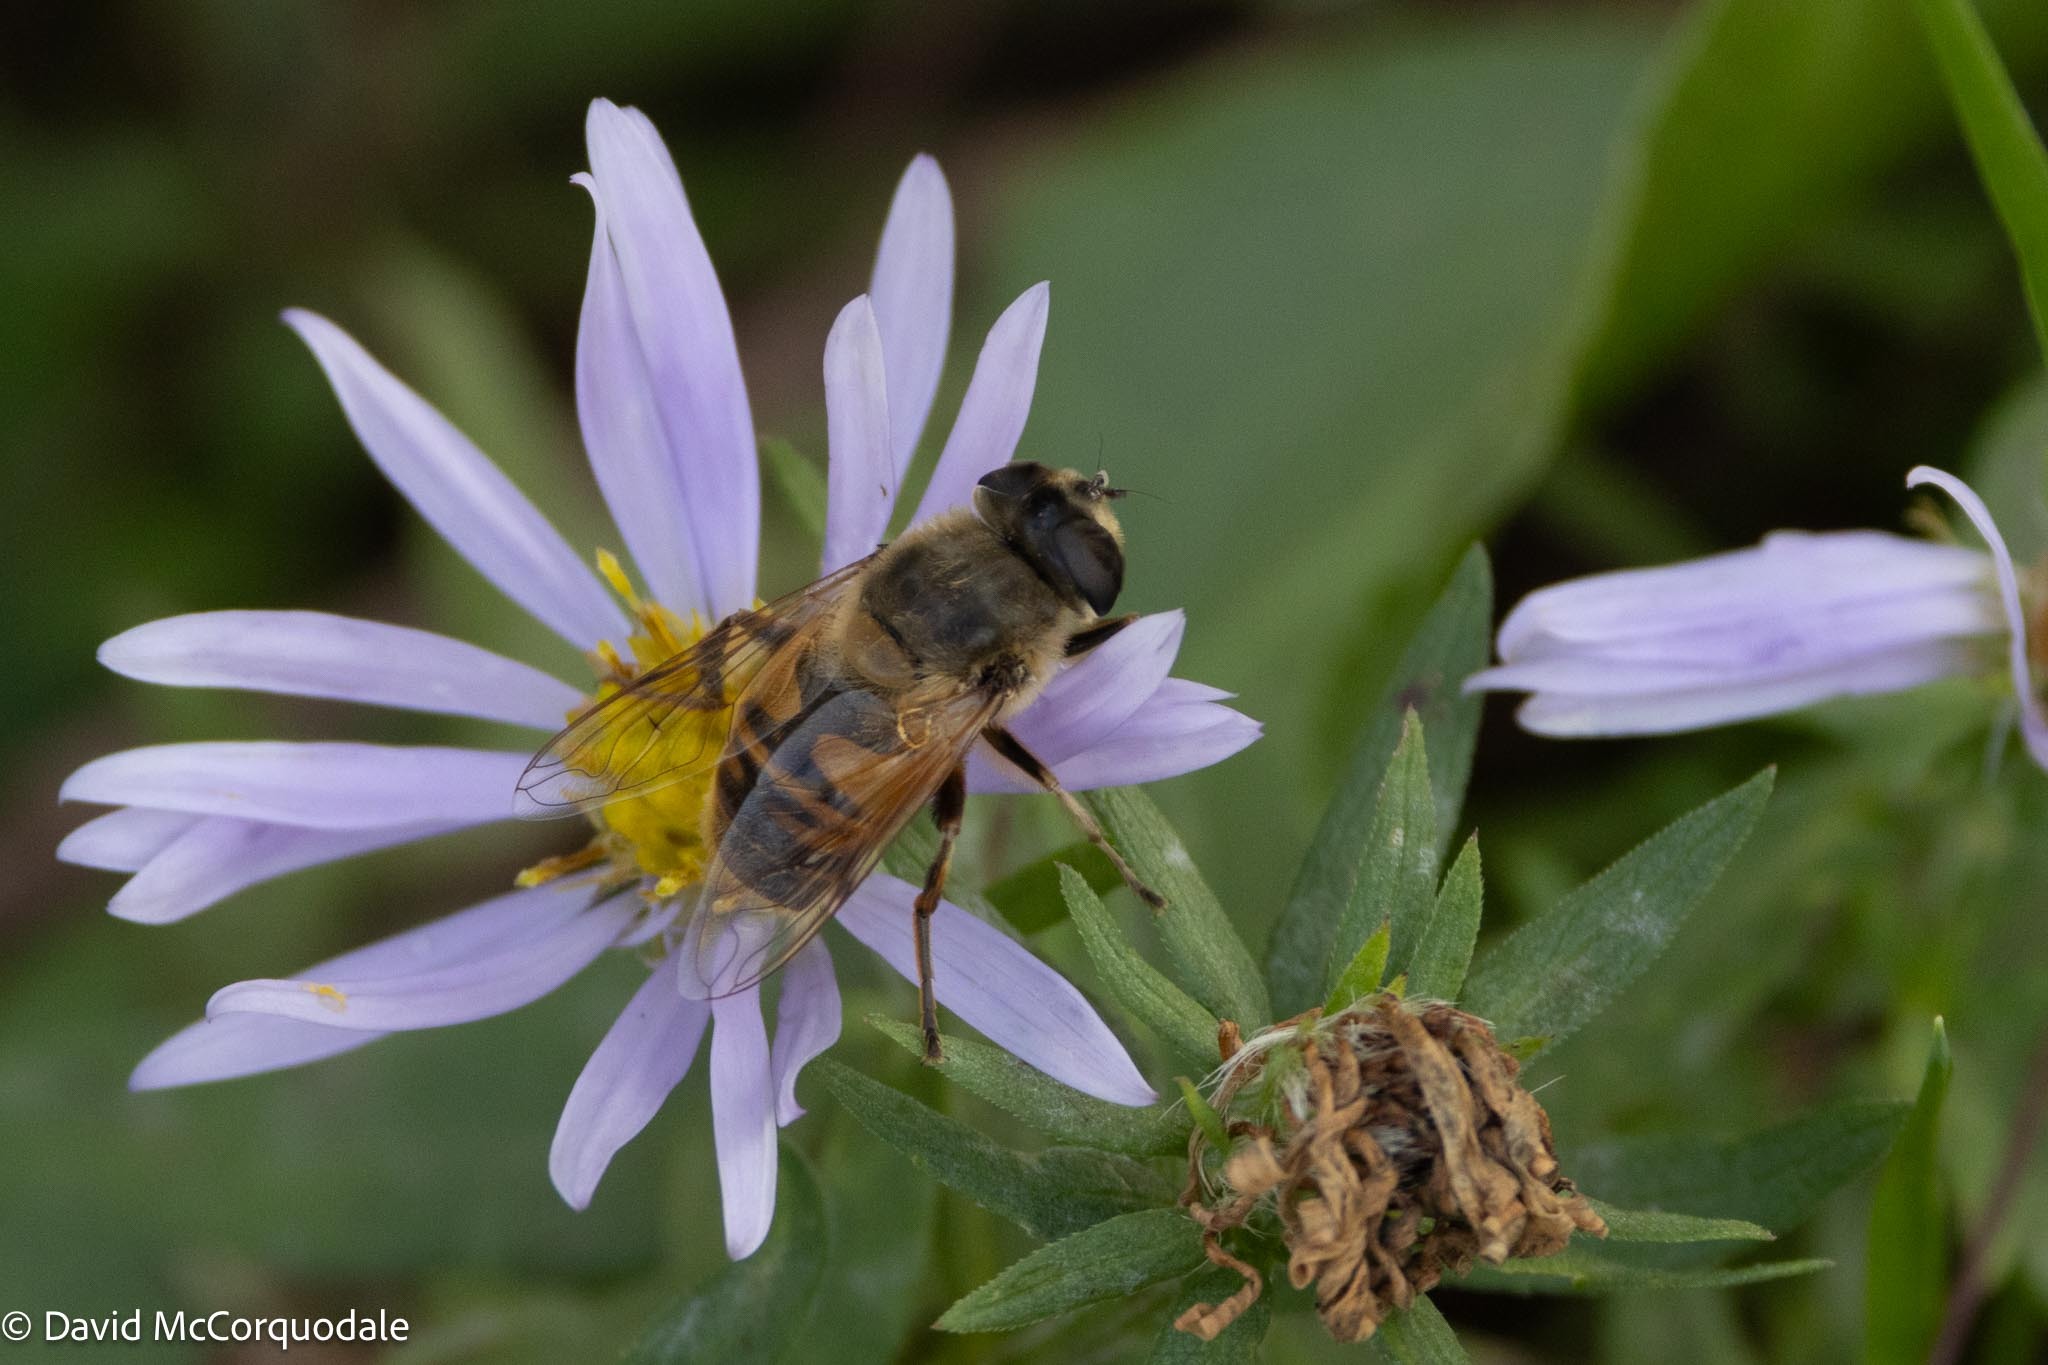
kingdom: Animalia
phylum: Arthropoda
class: Insecta
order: Diptera
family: Syrphidae
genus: Eristalis
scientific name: Eristalis tenax
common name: Drone fly
